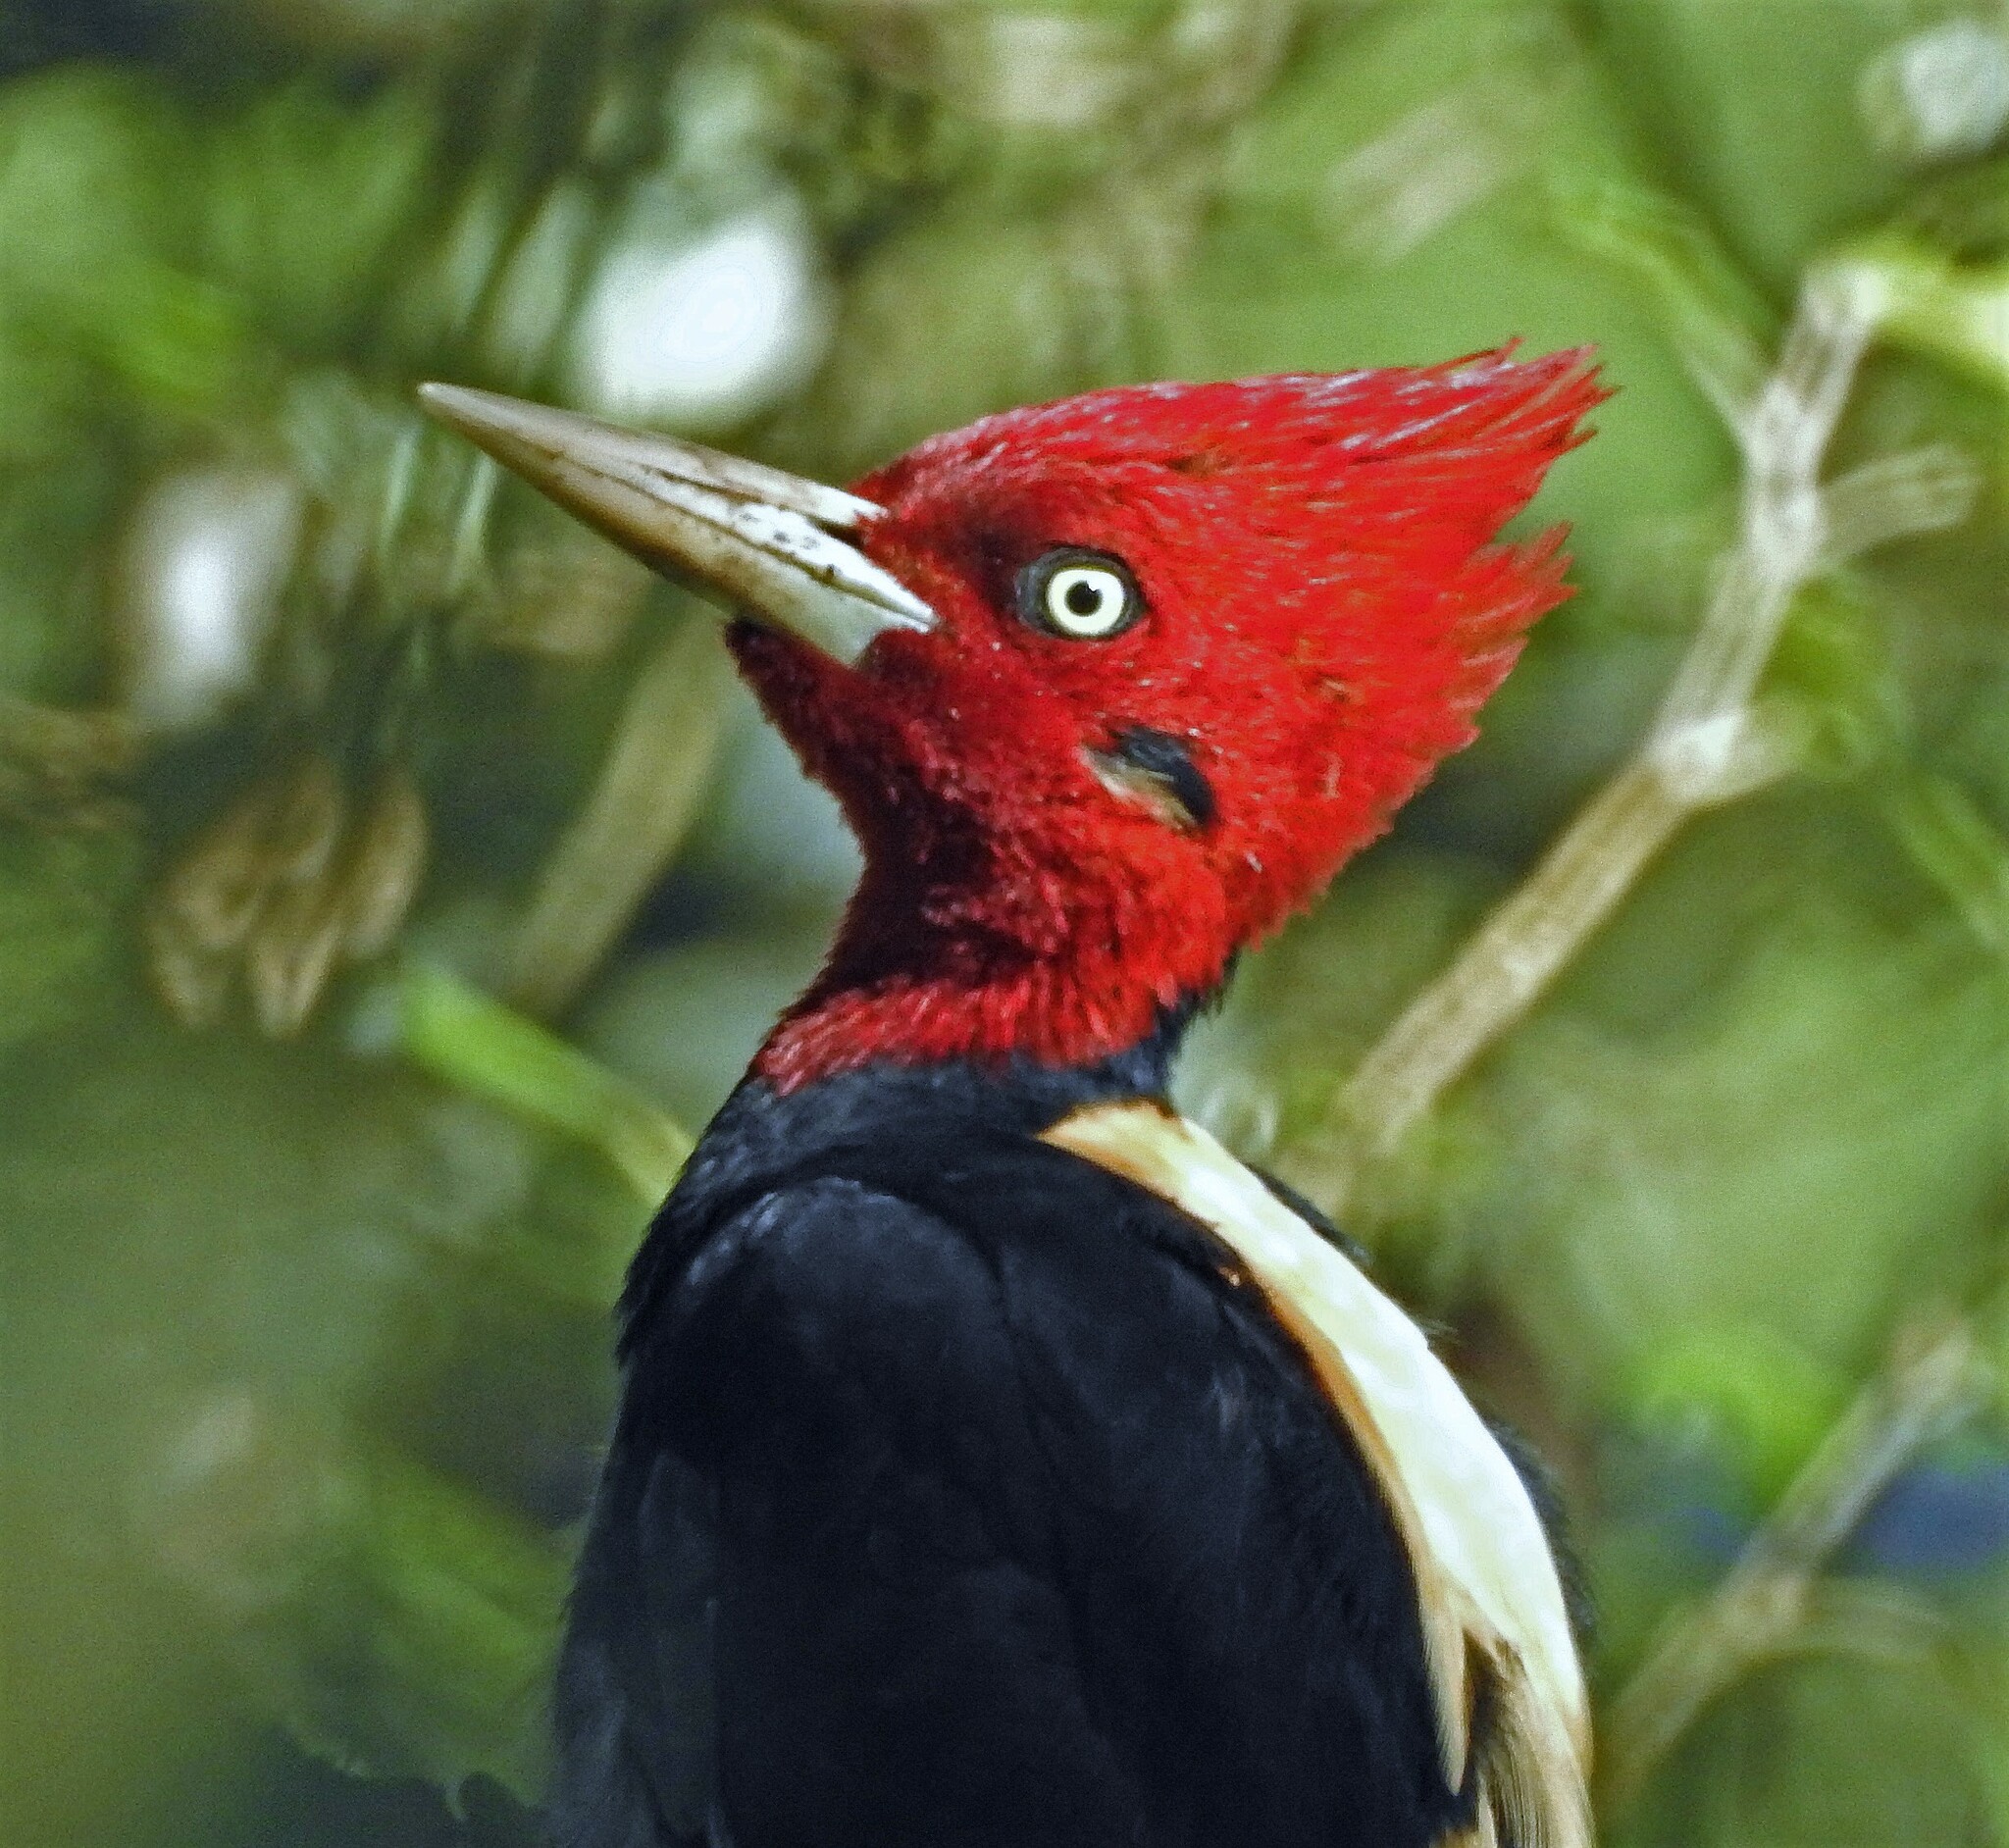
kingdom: Animalia
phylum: Chordata
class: Aves
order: Piciformes
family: Picidae
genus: Campephilus
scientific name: Campephilus leucopogon
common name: Cream-backed woodpecker
